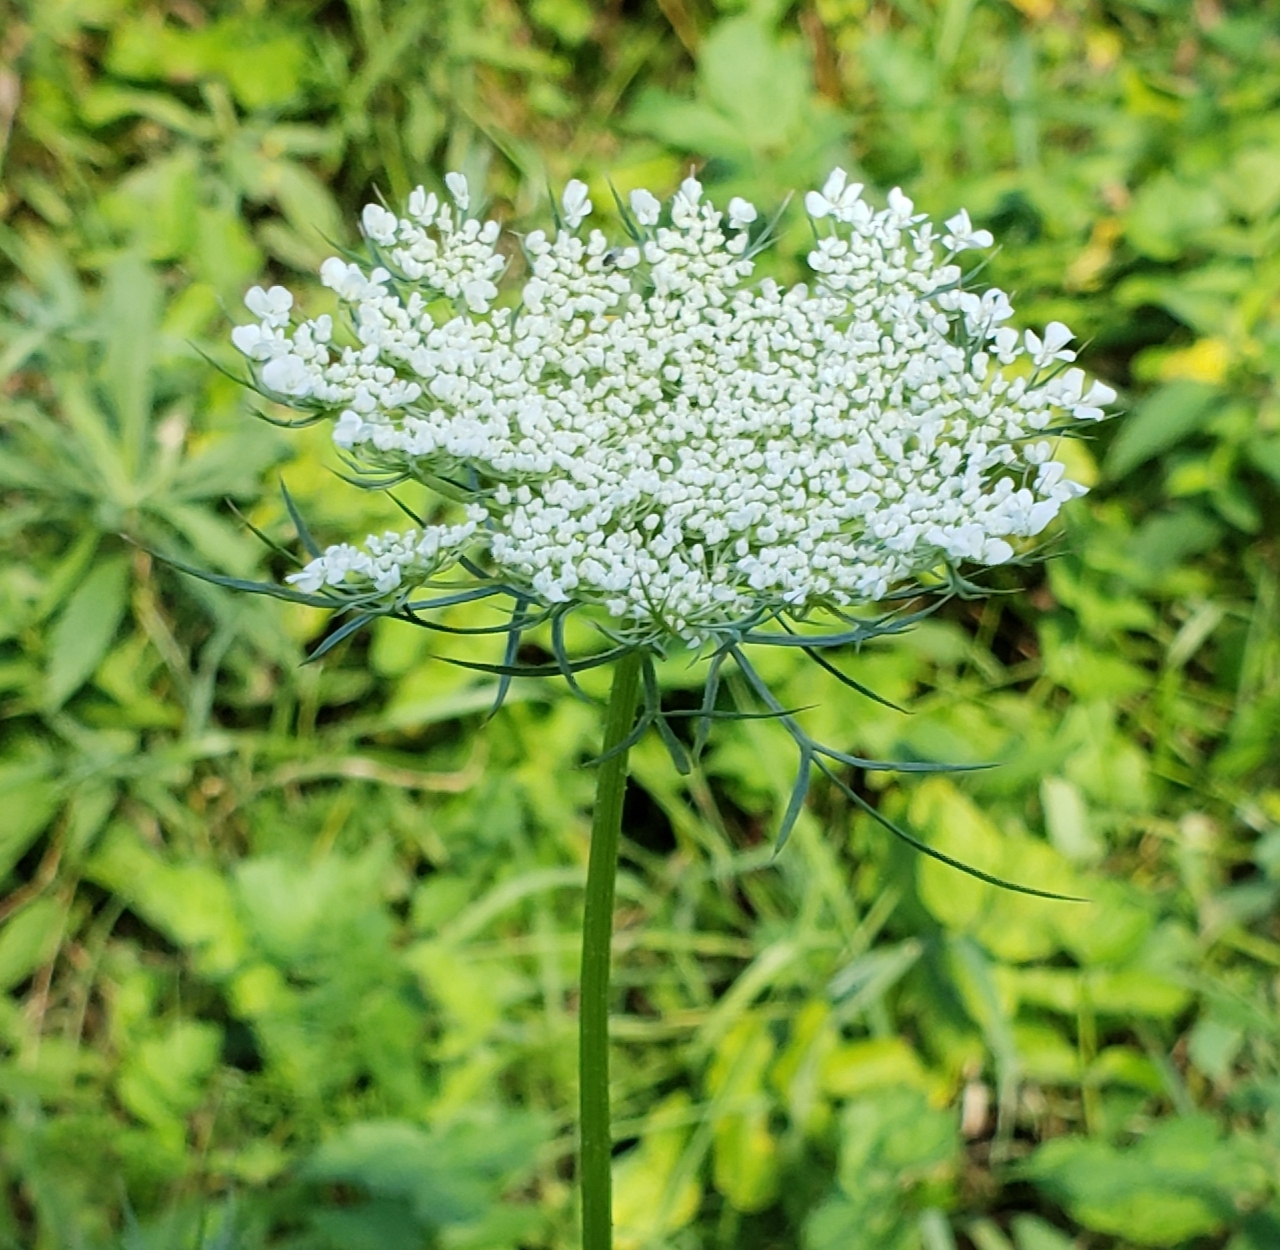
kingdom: Plantae
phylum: Tracheophyta
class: Magnoliopsida
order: Apiales
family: Apiaceae
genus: Daucus
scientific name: Daucus carota
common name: Wild carrot
